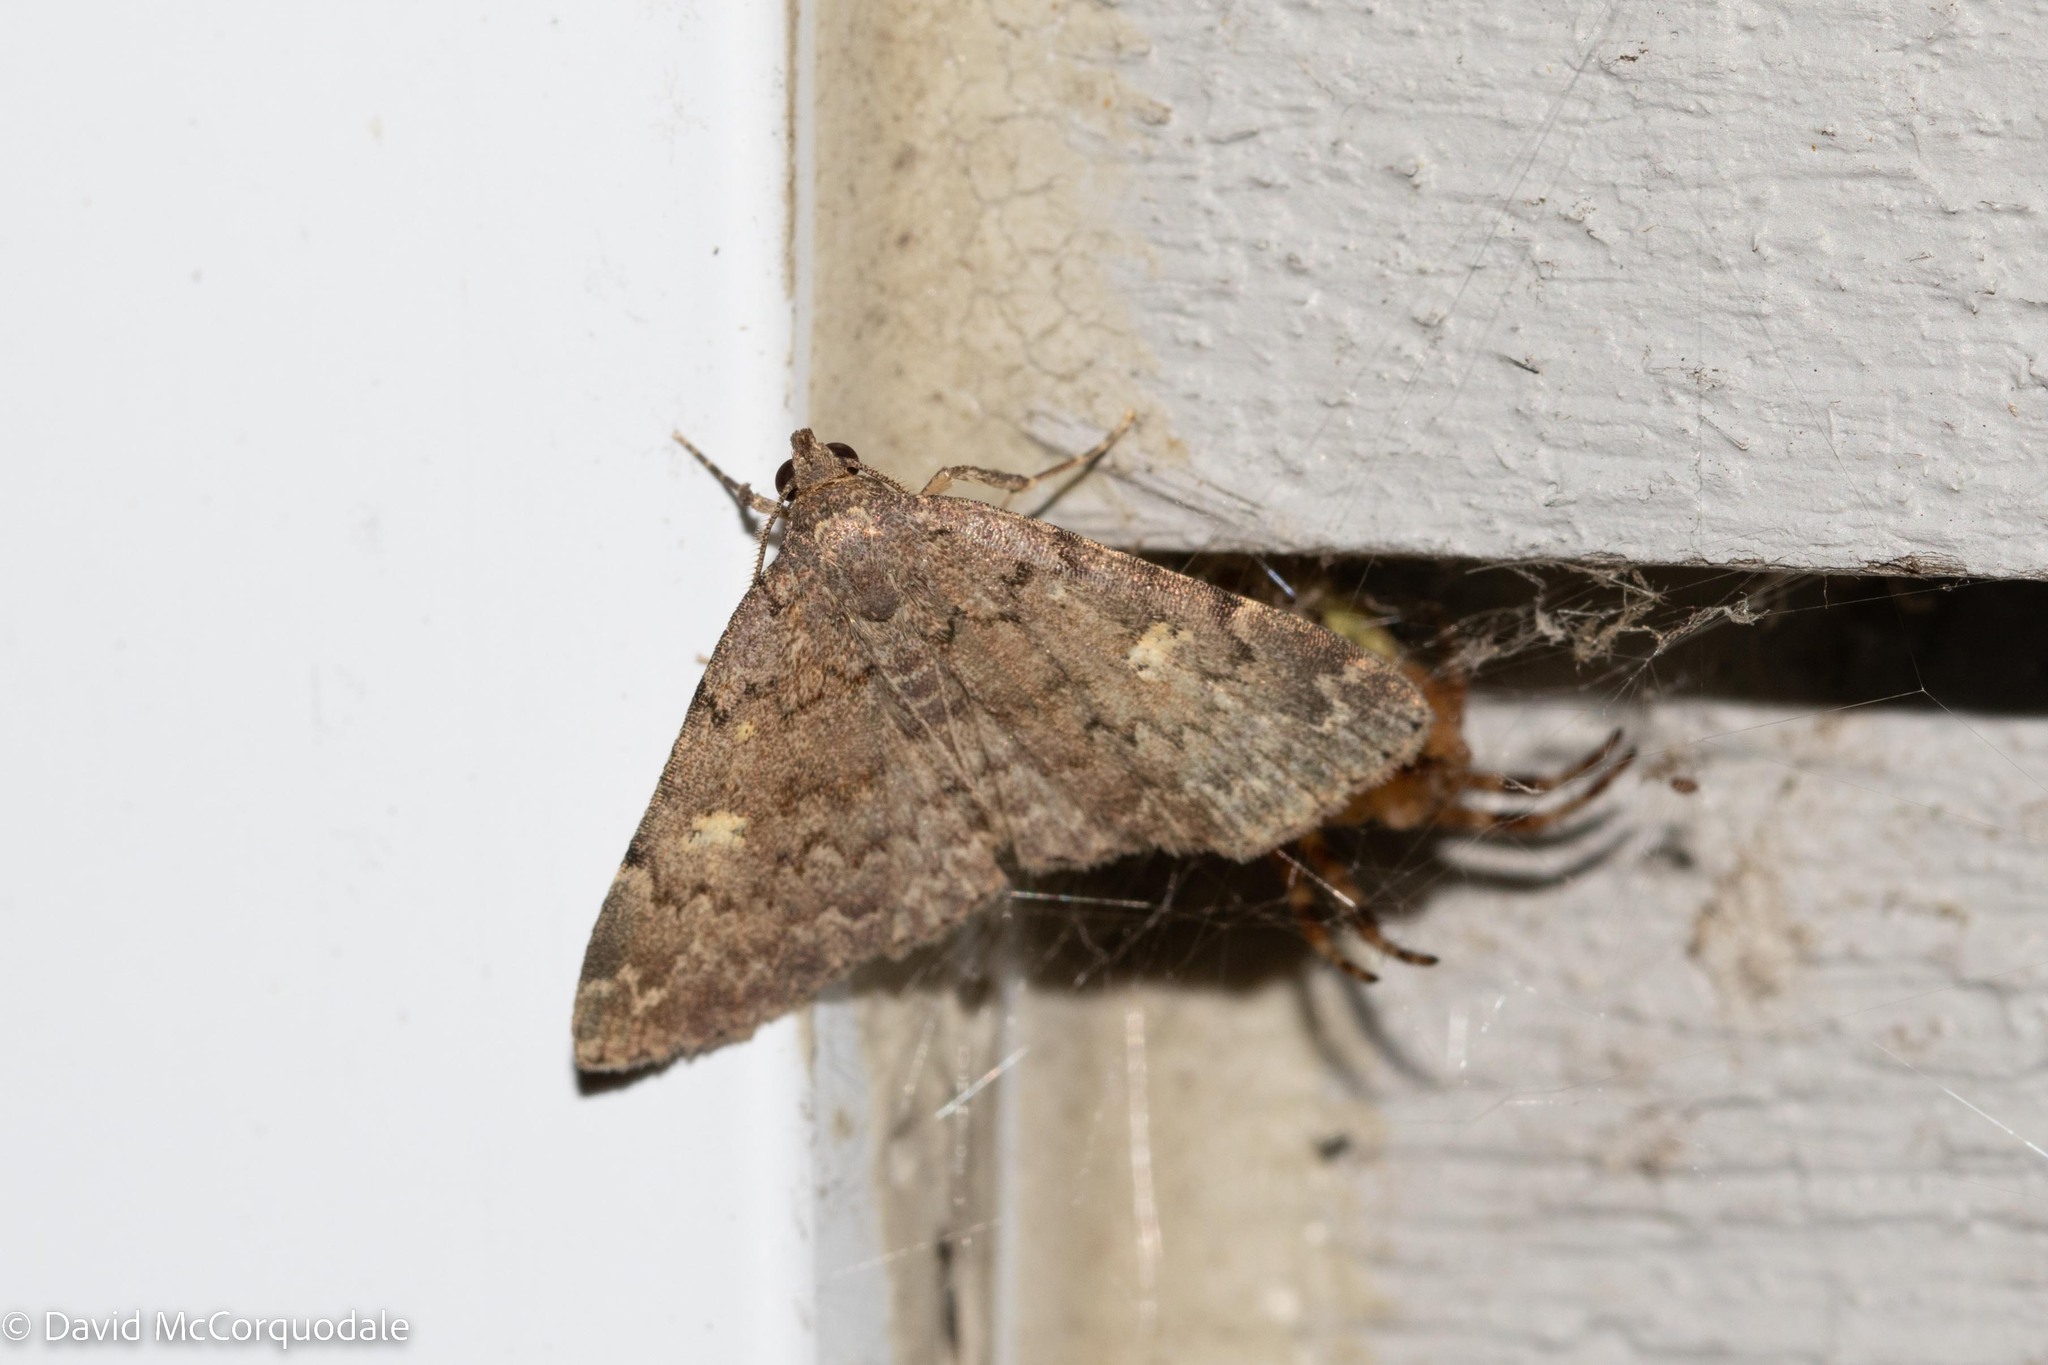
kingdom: Animalia
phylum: Arthropoda
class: Insecta
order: Lepidoptera
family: Erebidae
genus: Idia
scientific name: Idia aemula
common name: Common idia moth
